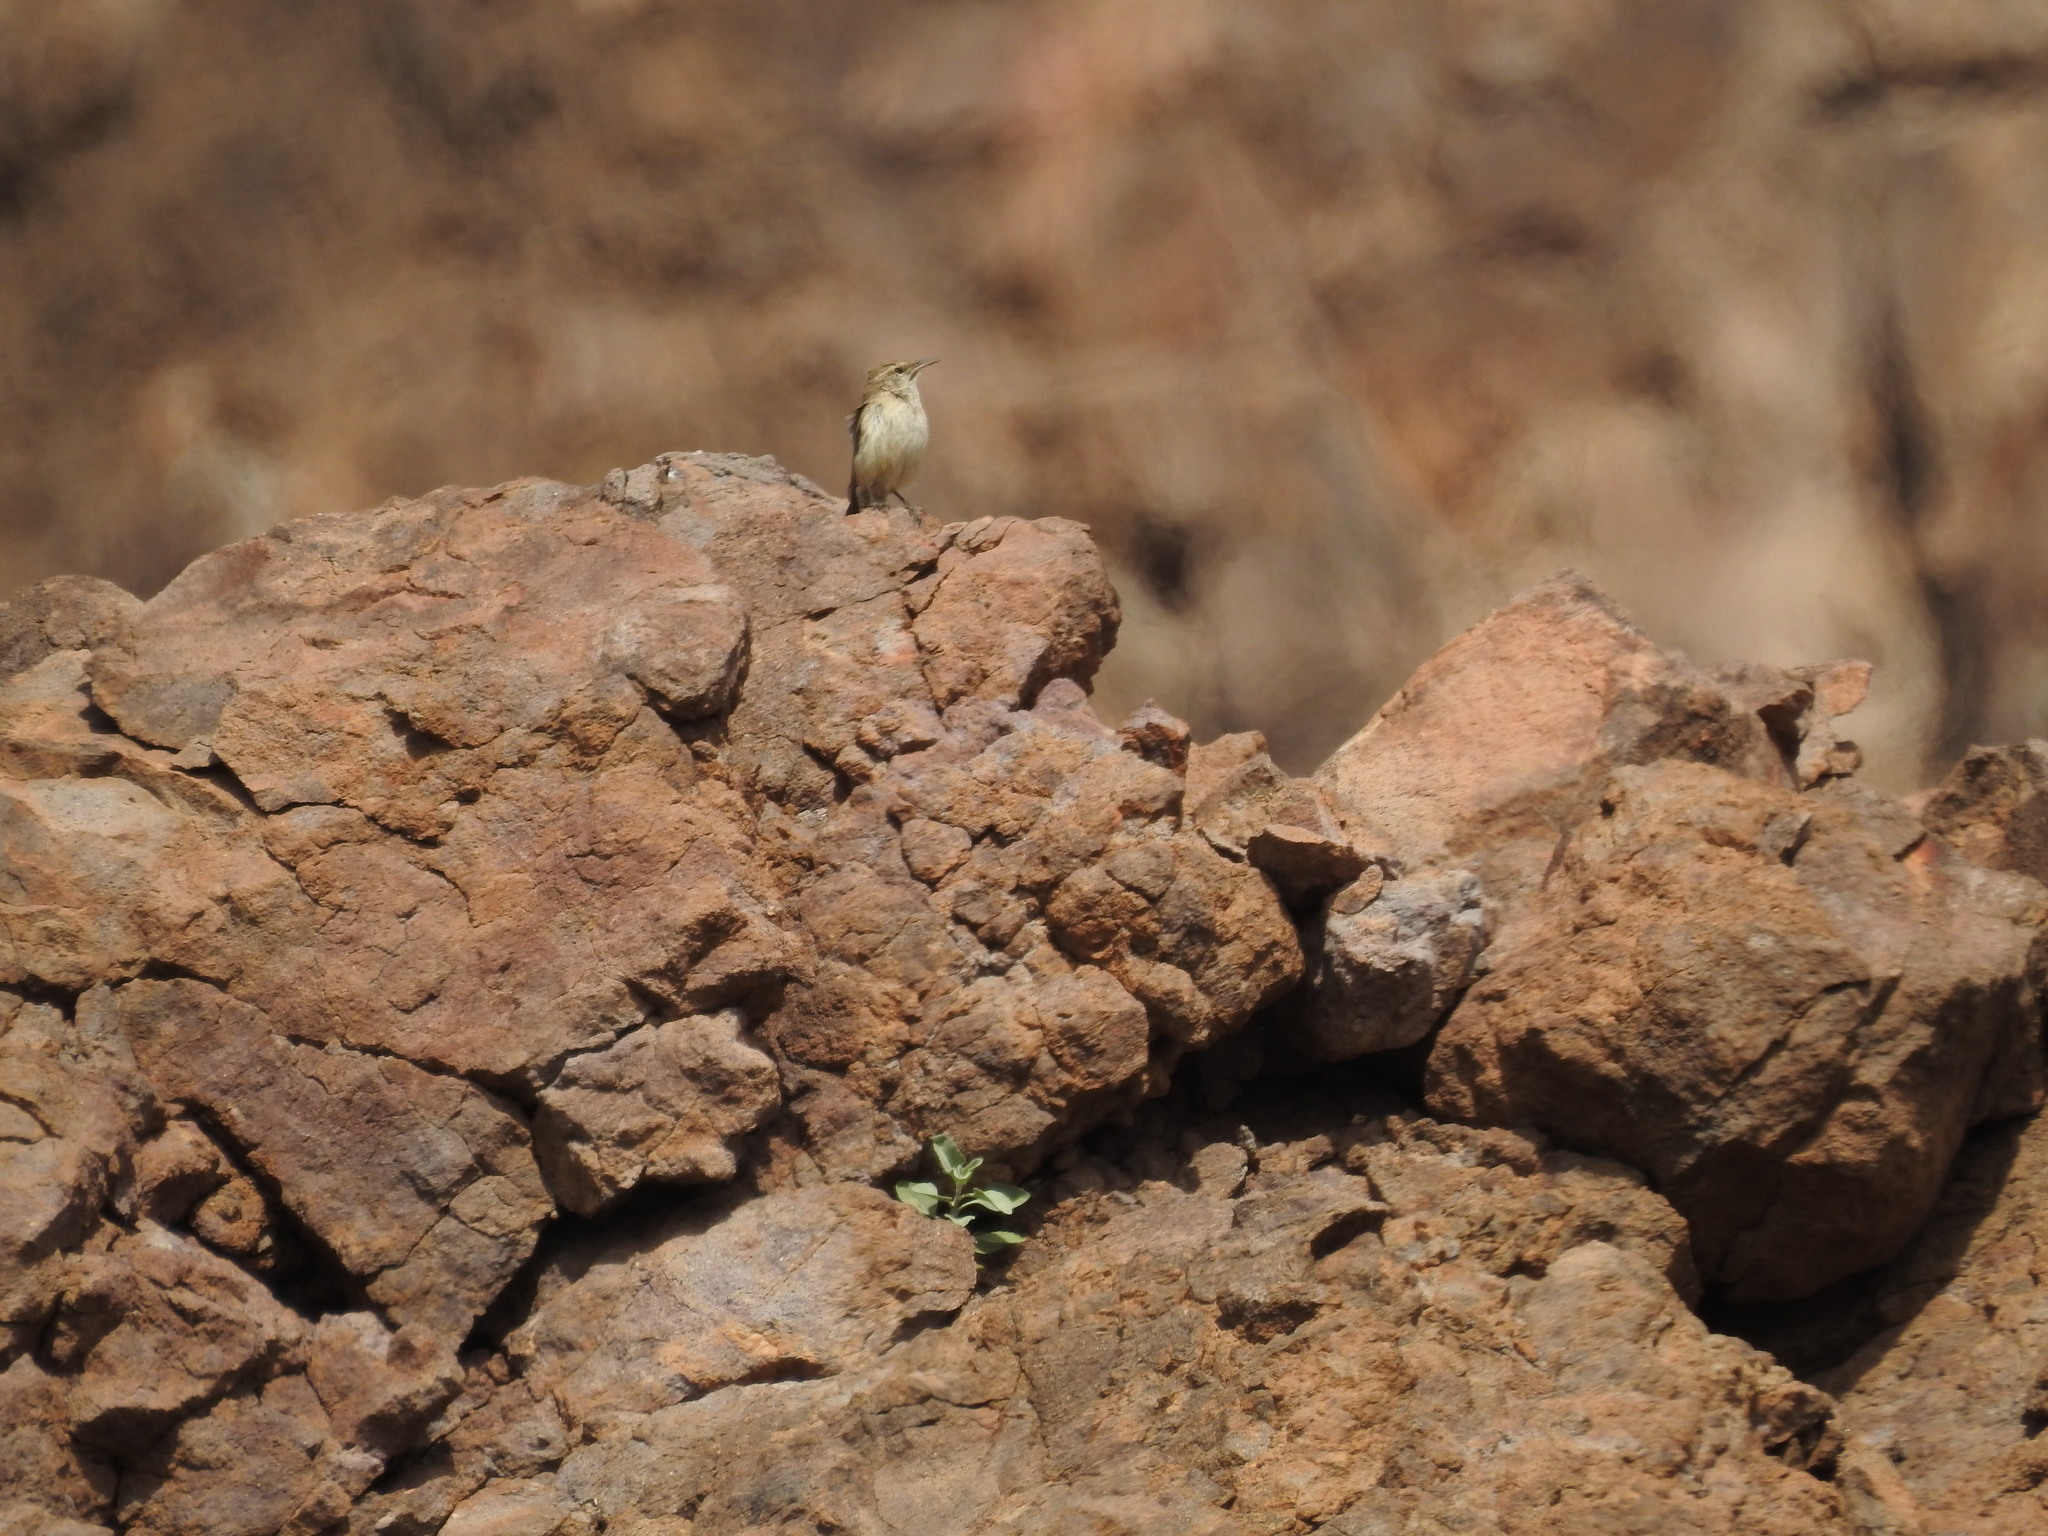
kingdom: Animalia
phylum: Chordata
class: Aves
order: Passeriformes
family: Troglodytidae
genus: Salpinctes
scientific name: Salpinctes obsoletus
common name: Rock wren
